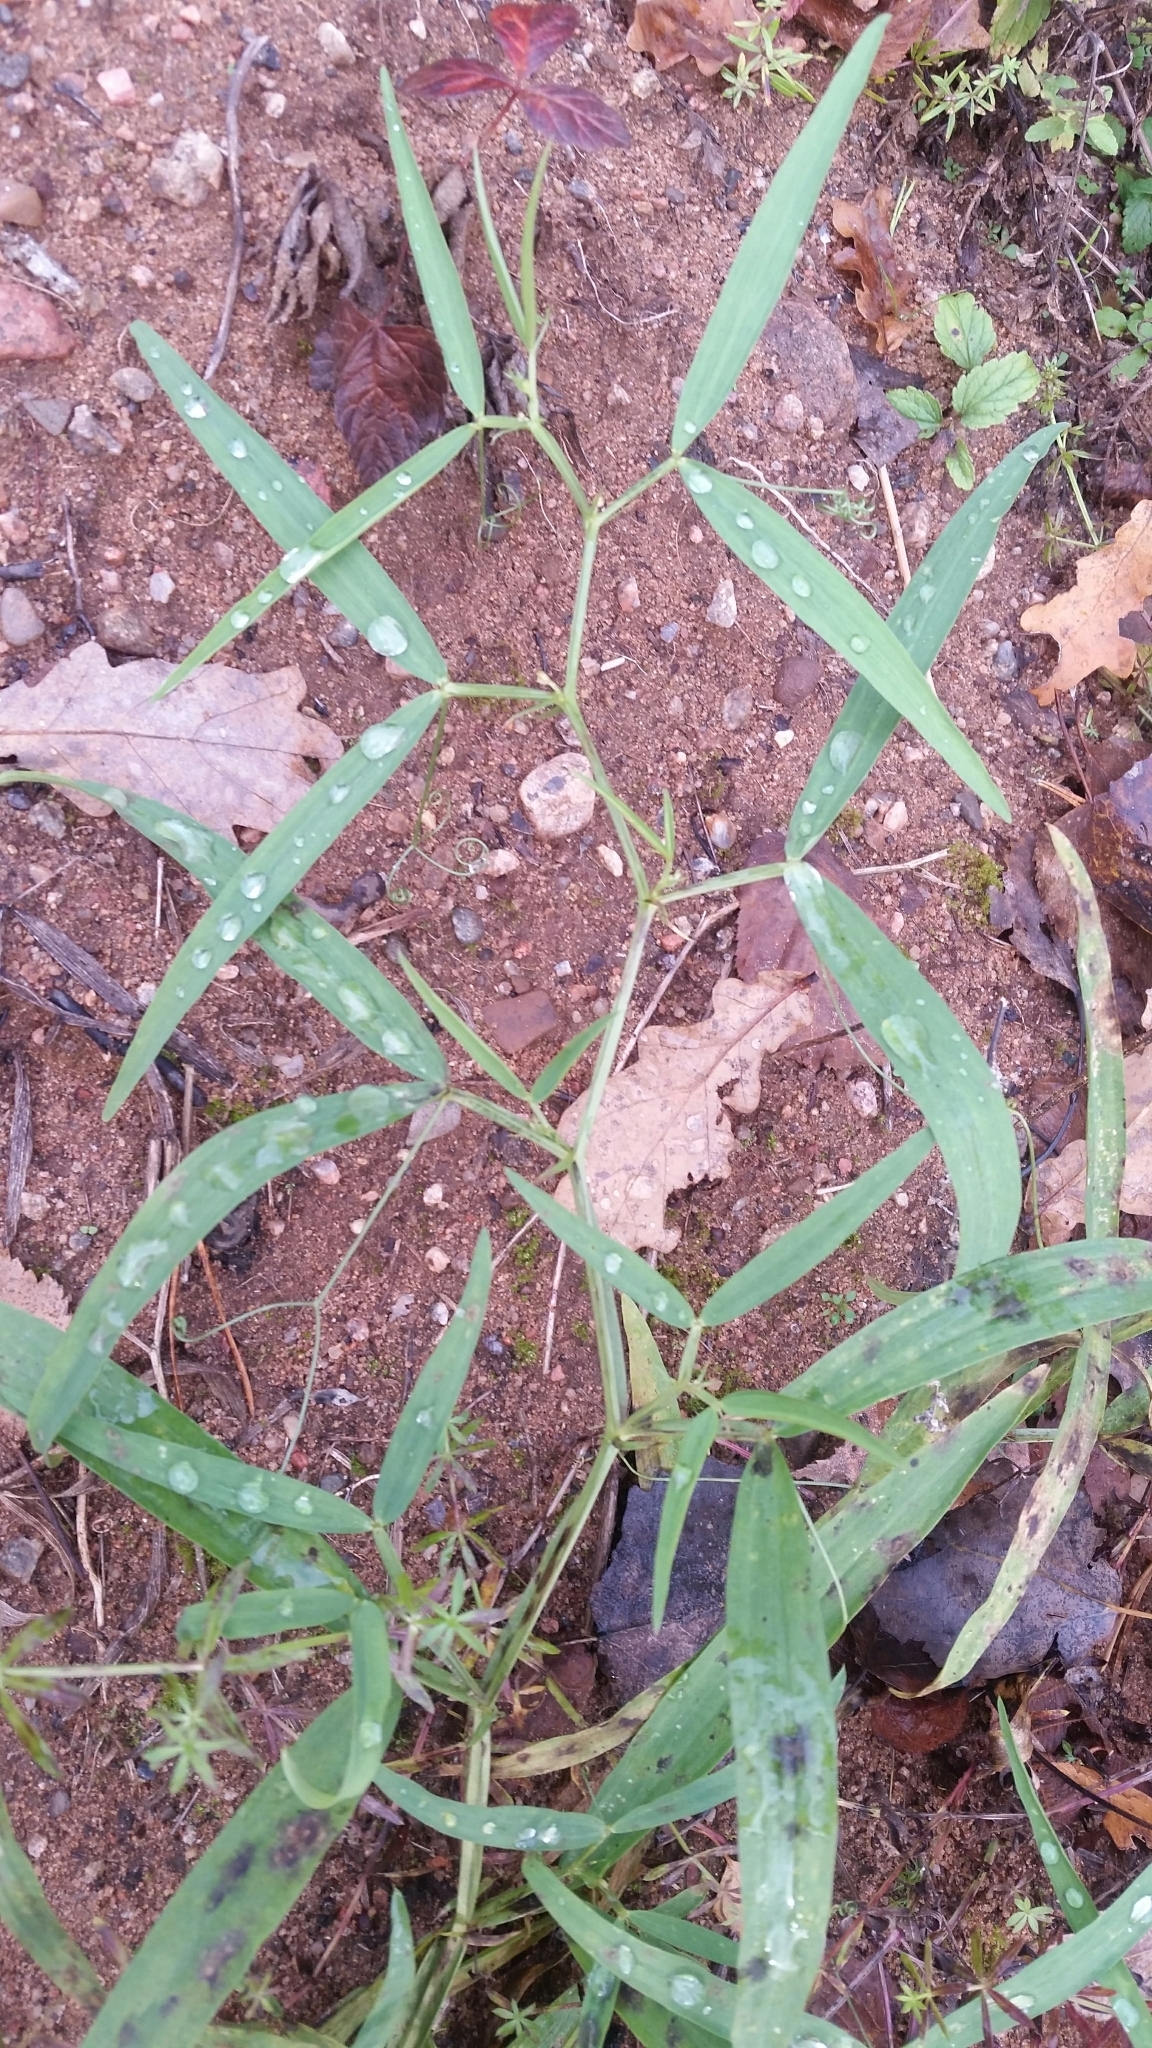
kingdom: Plantae
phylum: Tracheophyta
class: Magnoliopsida
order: Fabales
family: Fabaceae
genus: Lathyrus
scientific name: Lathyrus sylvestris
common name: Flat pea
